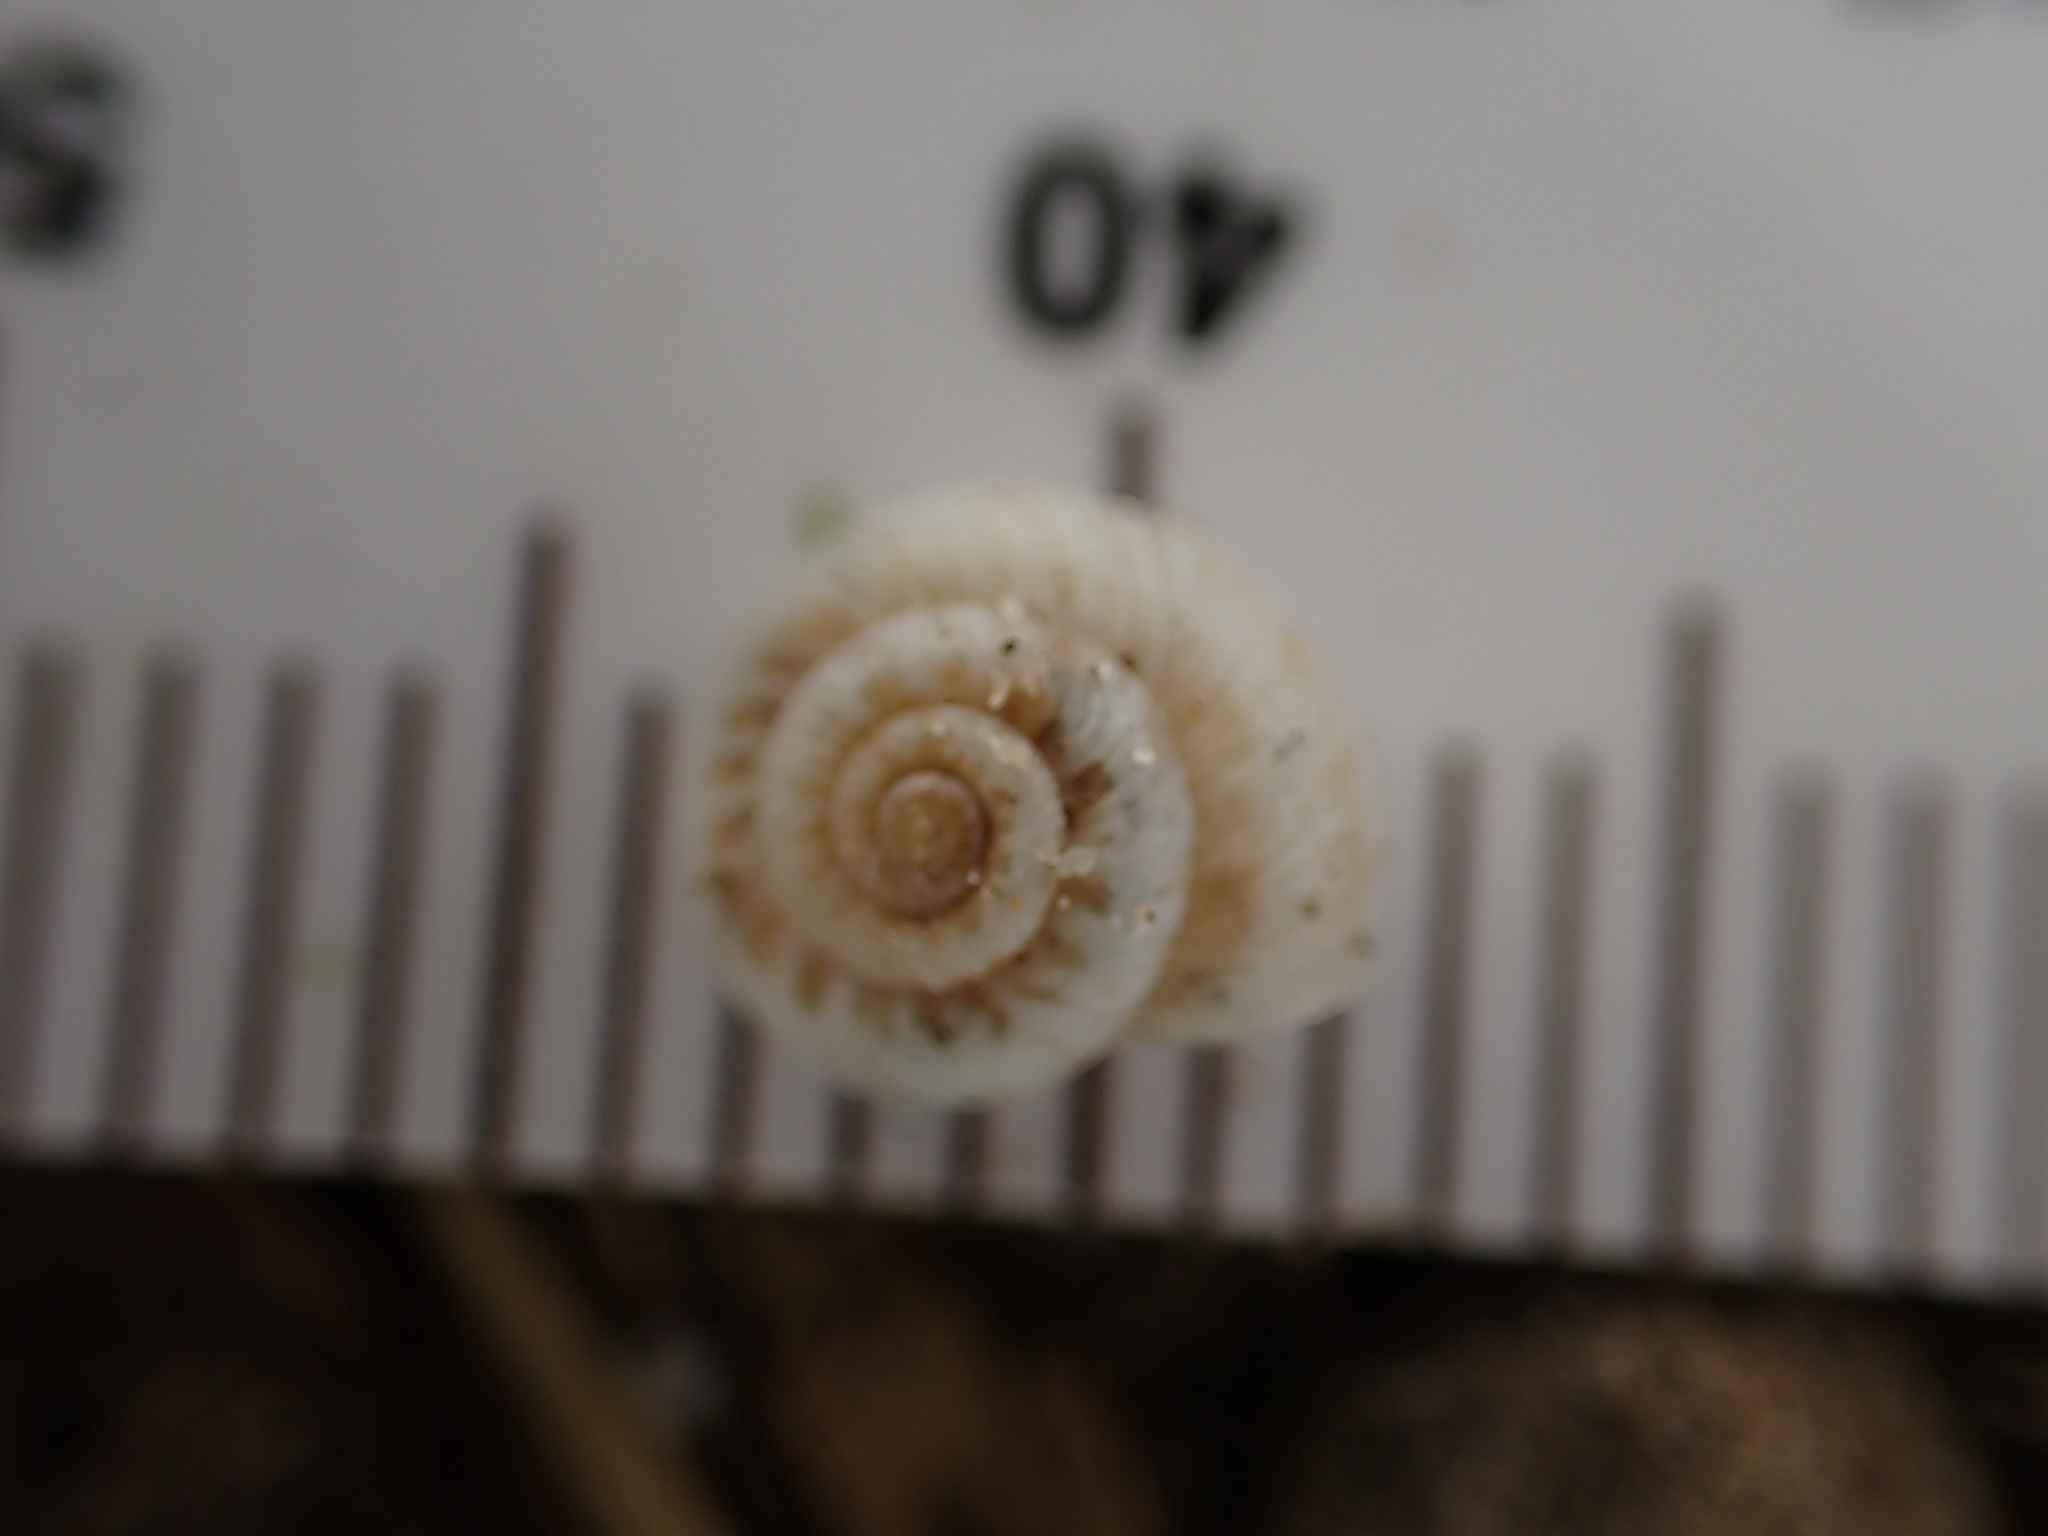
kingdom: Animalia
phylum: Mollusca
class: Gastropoda
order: Stylommatophora
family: Geomitridae
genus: Xerotricha
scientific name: Xerotricha apicina
